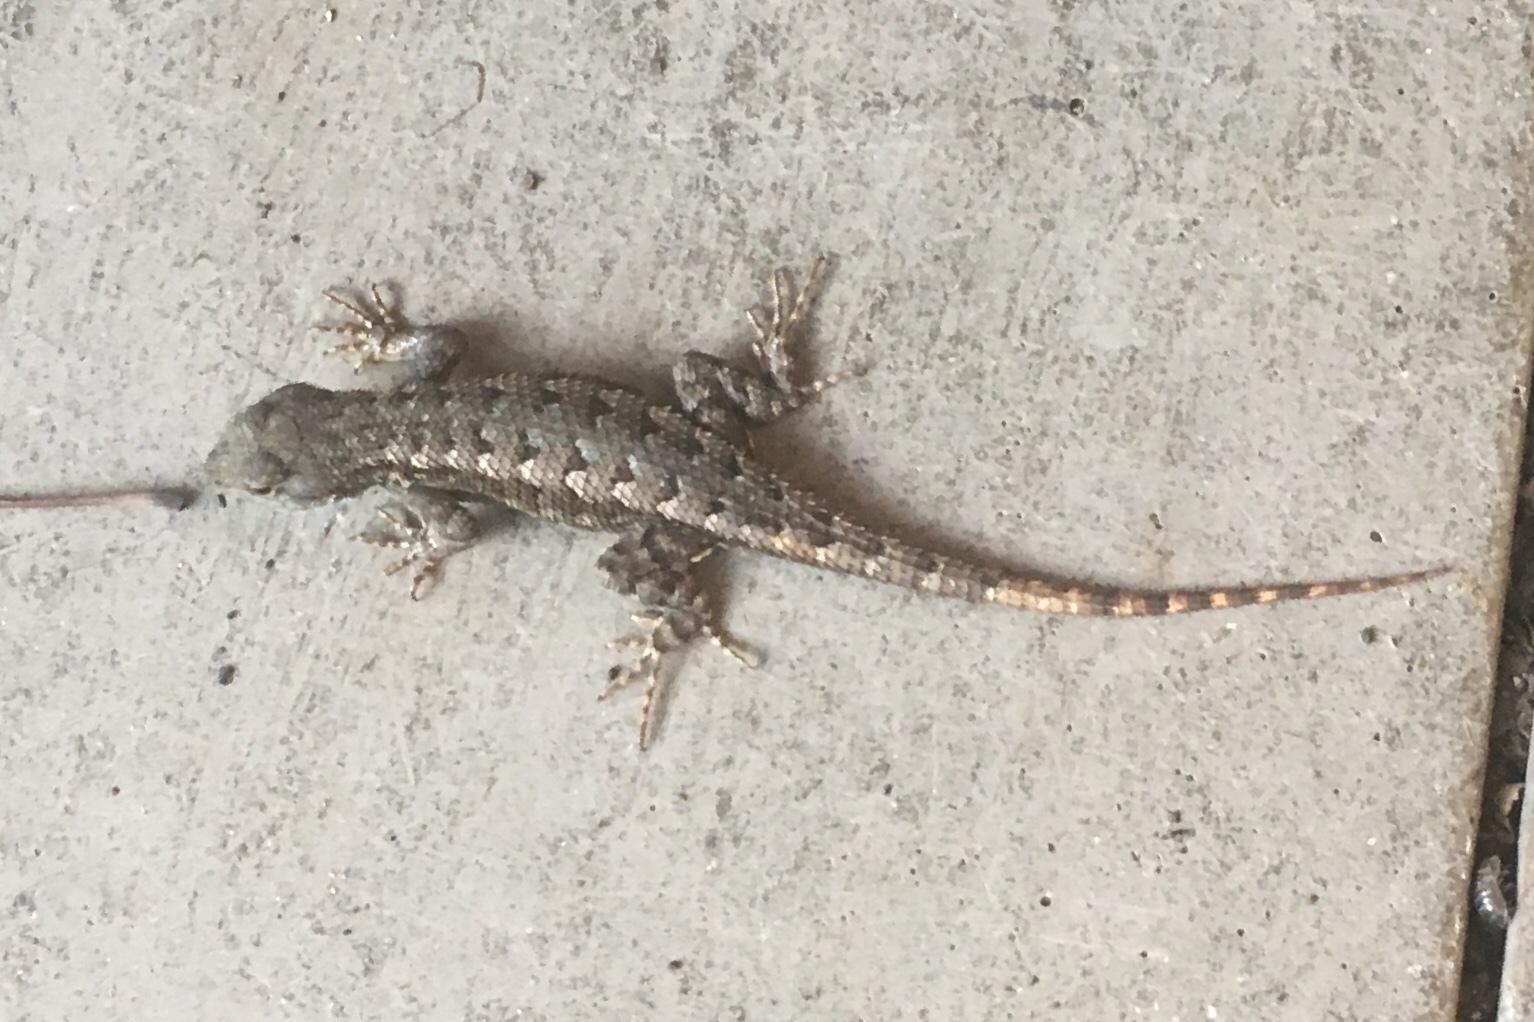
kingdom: Animalia
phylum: Chordata
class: Squamata
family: Phrynosomatidae
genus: Sceloporus
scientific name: Sceloporus occidentalis
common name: Western fence lizard
